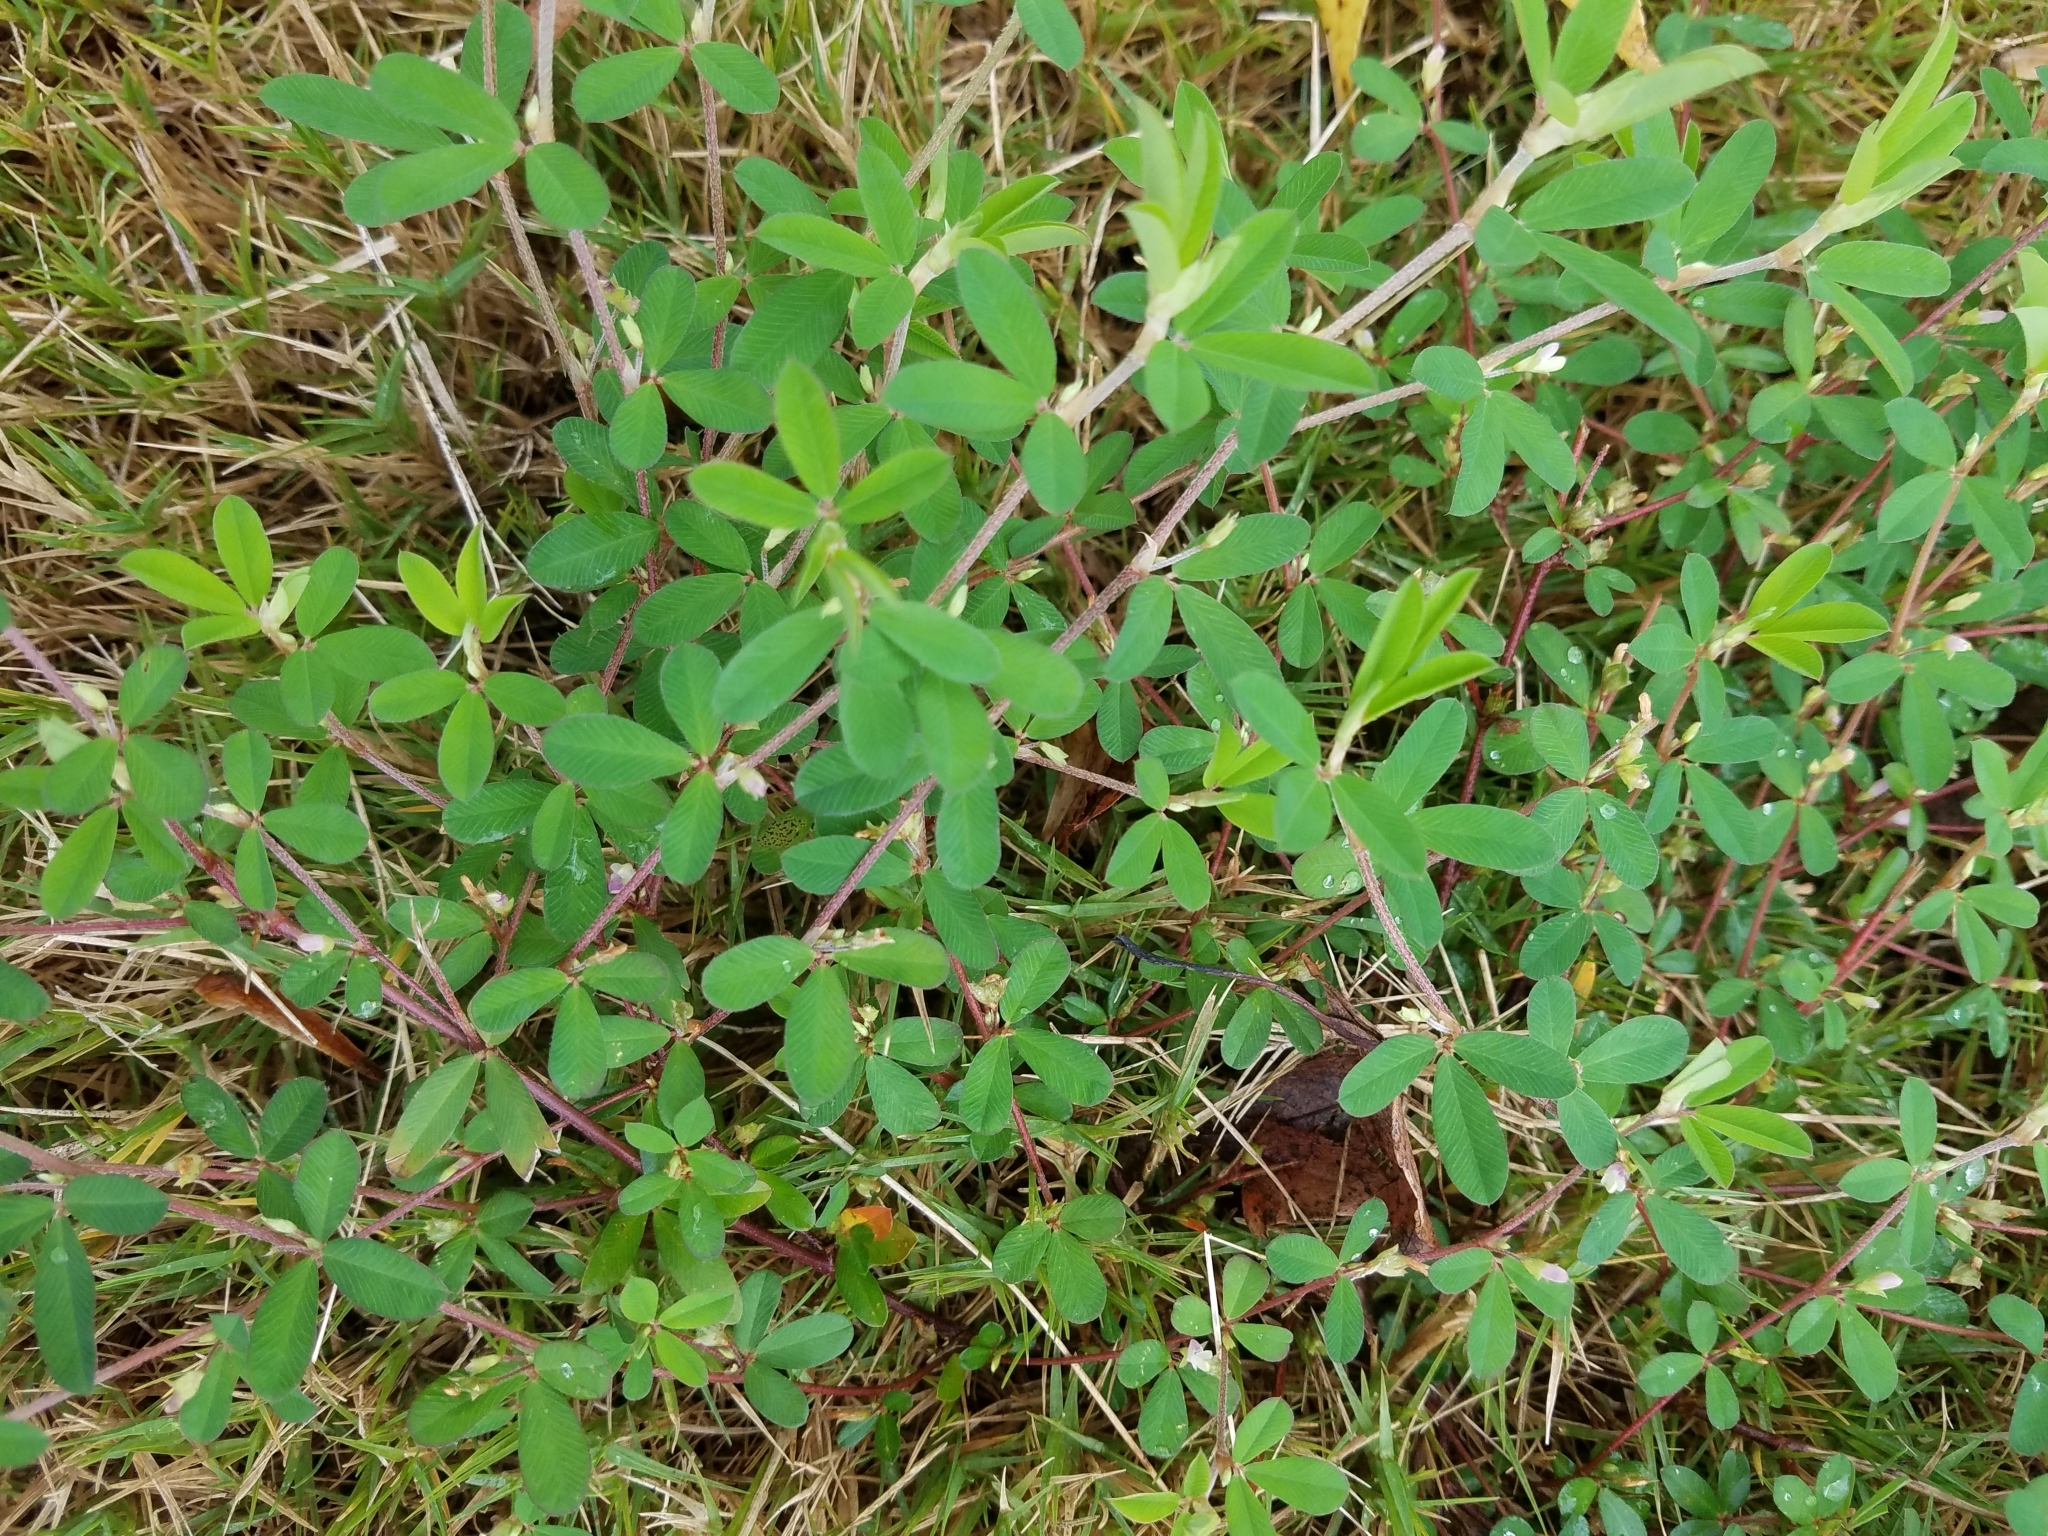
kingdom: Plantae
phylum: Tracheophyta
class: Magnoliopsida
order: Fabales
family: Fabaceae
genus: Kummerowia
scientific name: Kummerowia striata
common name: Japanese clover
